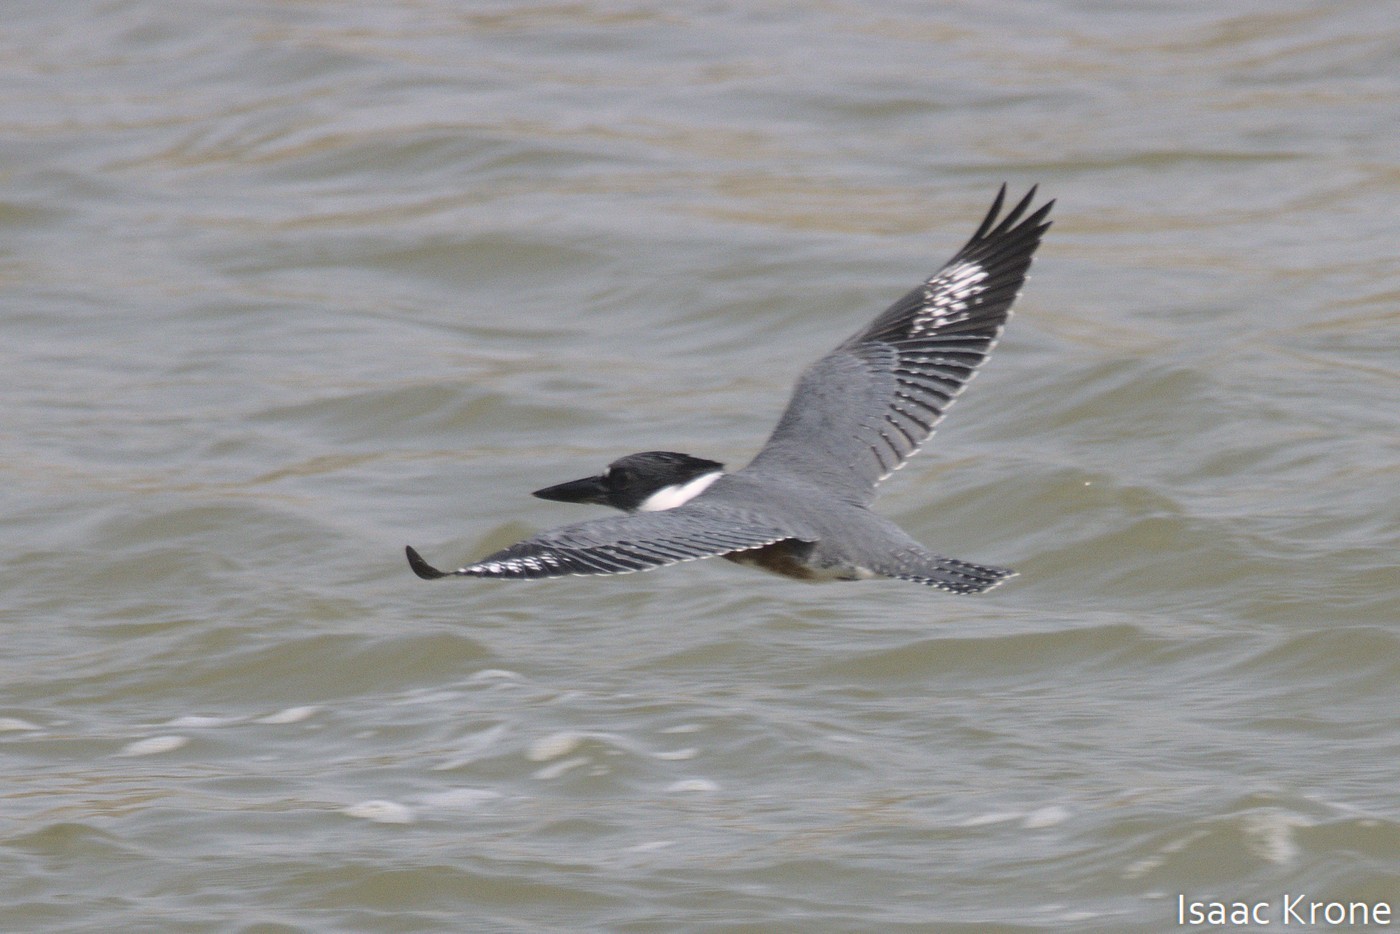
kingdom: Animalia
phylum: Chordata
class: Aves
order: Coraciiformes
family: Alcedinidae
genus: Megaceryle
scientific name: Megaceryle alcyon
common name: Belted kingfisher
